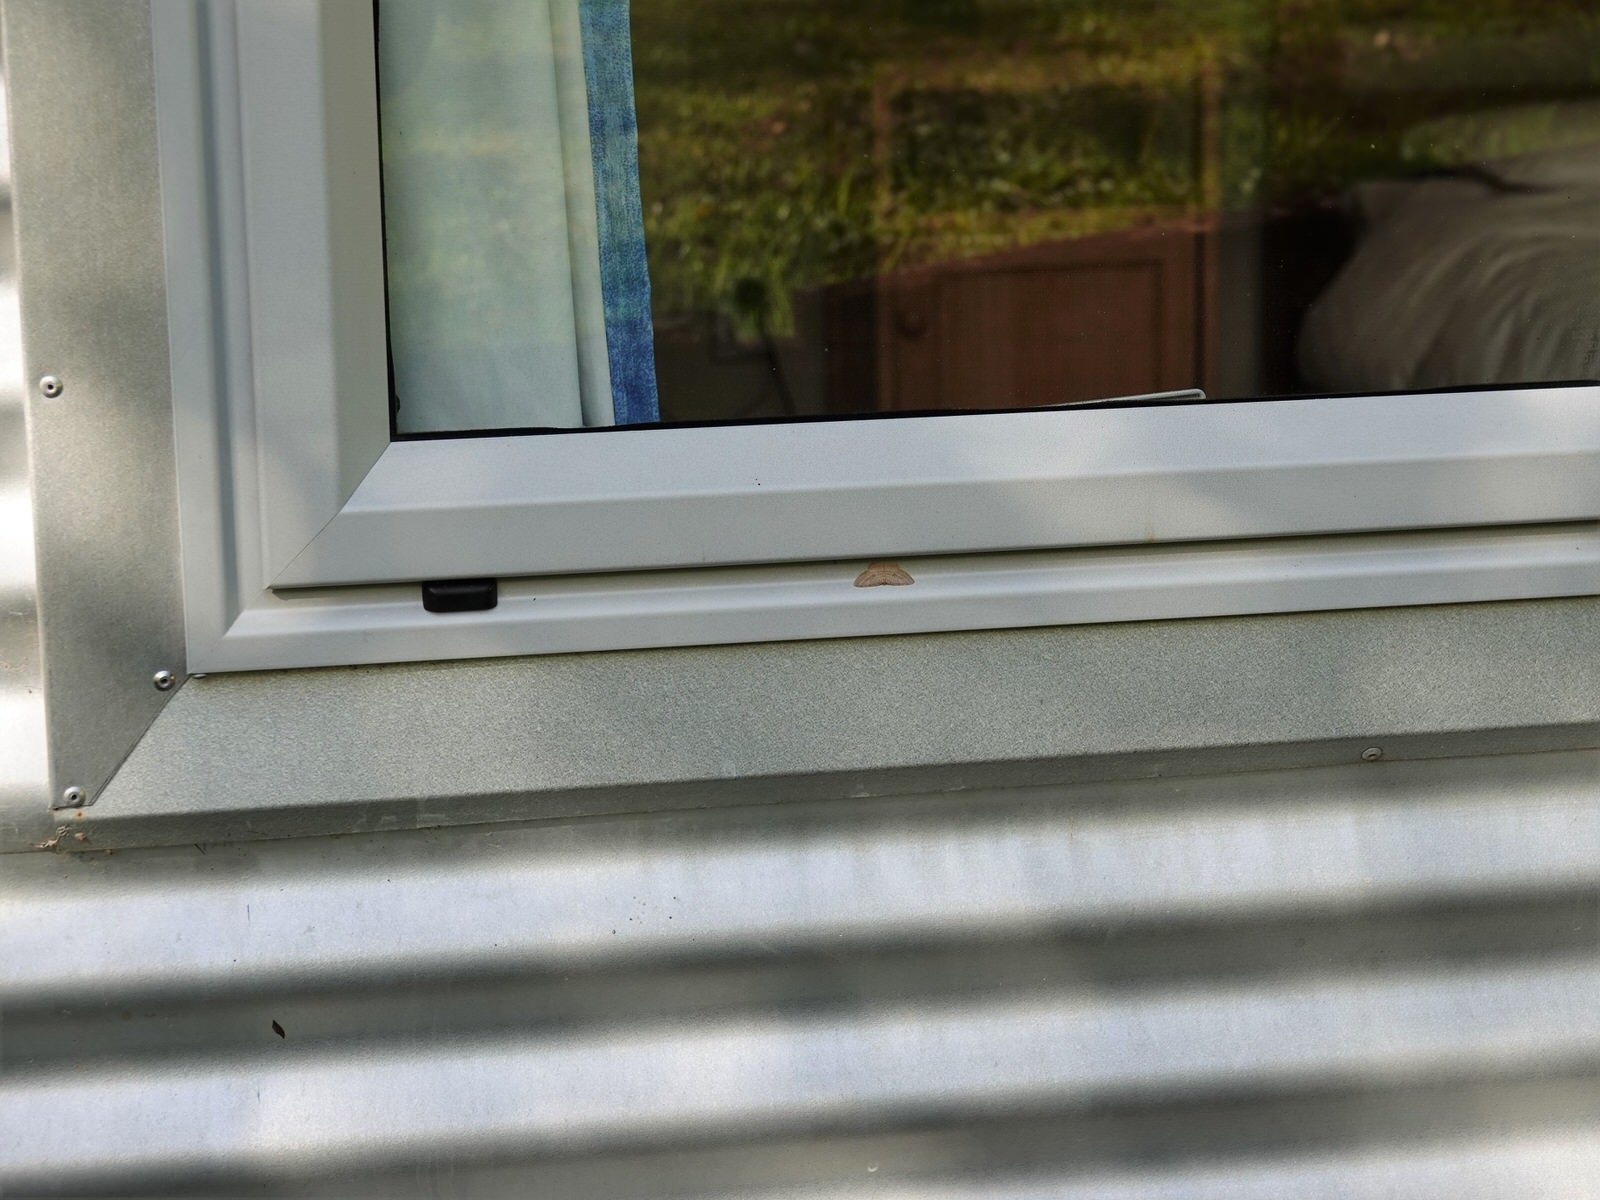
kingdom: Animalia
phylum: Arthropoda
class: Insecta
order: Lepidoptera
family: Geometridae
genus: Poecilasthena
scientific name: Poecilasthena schistaria
